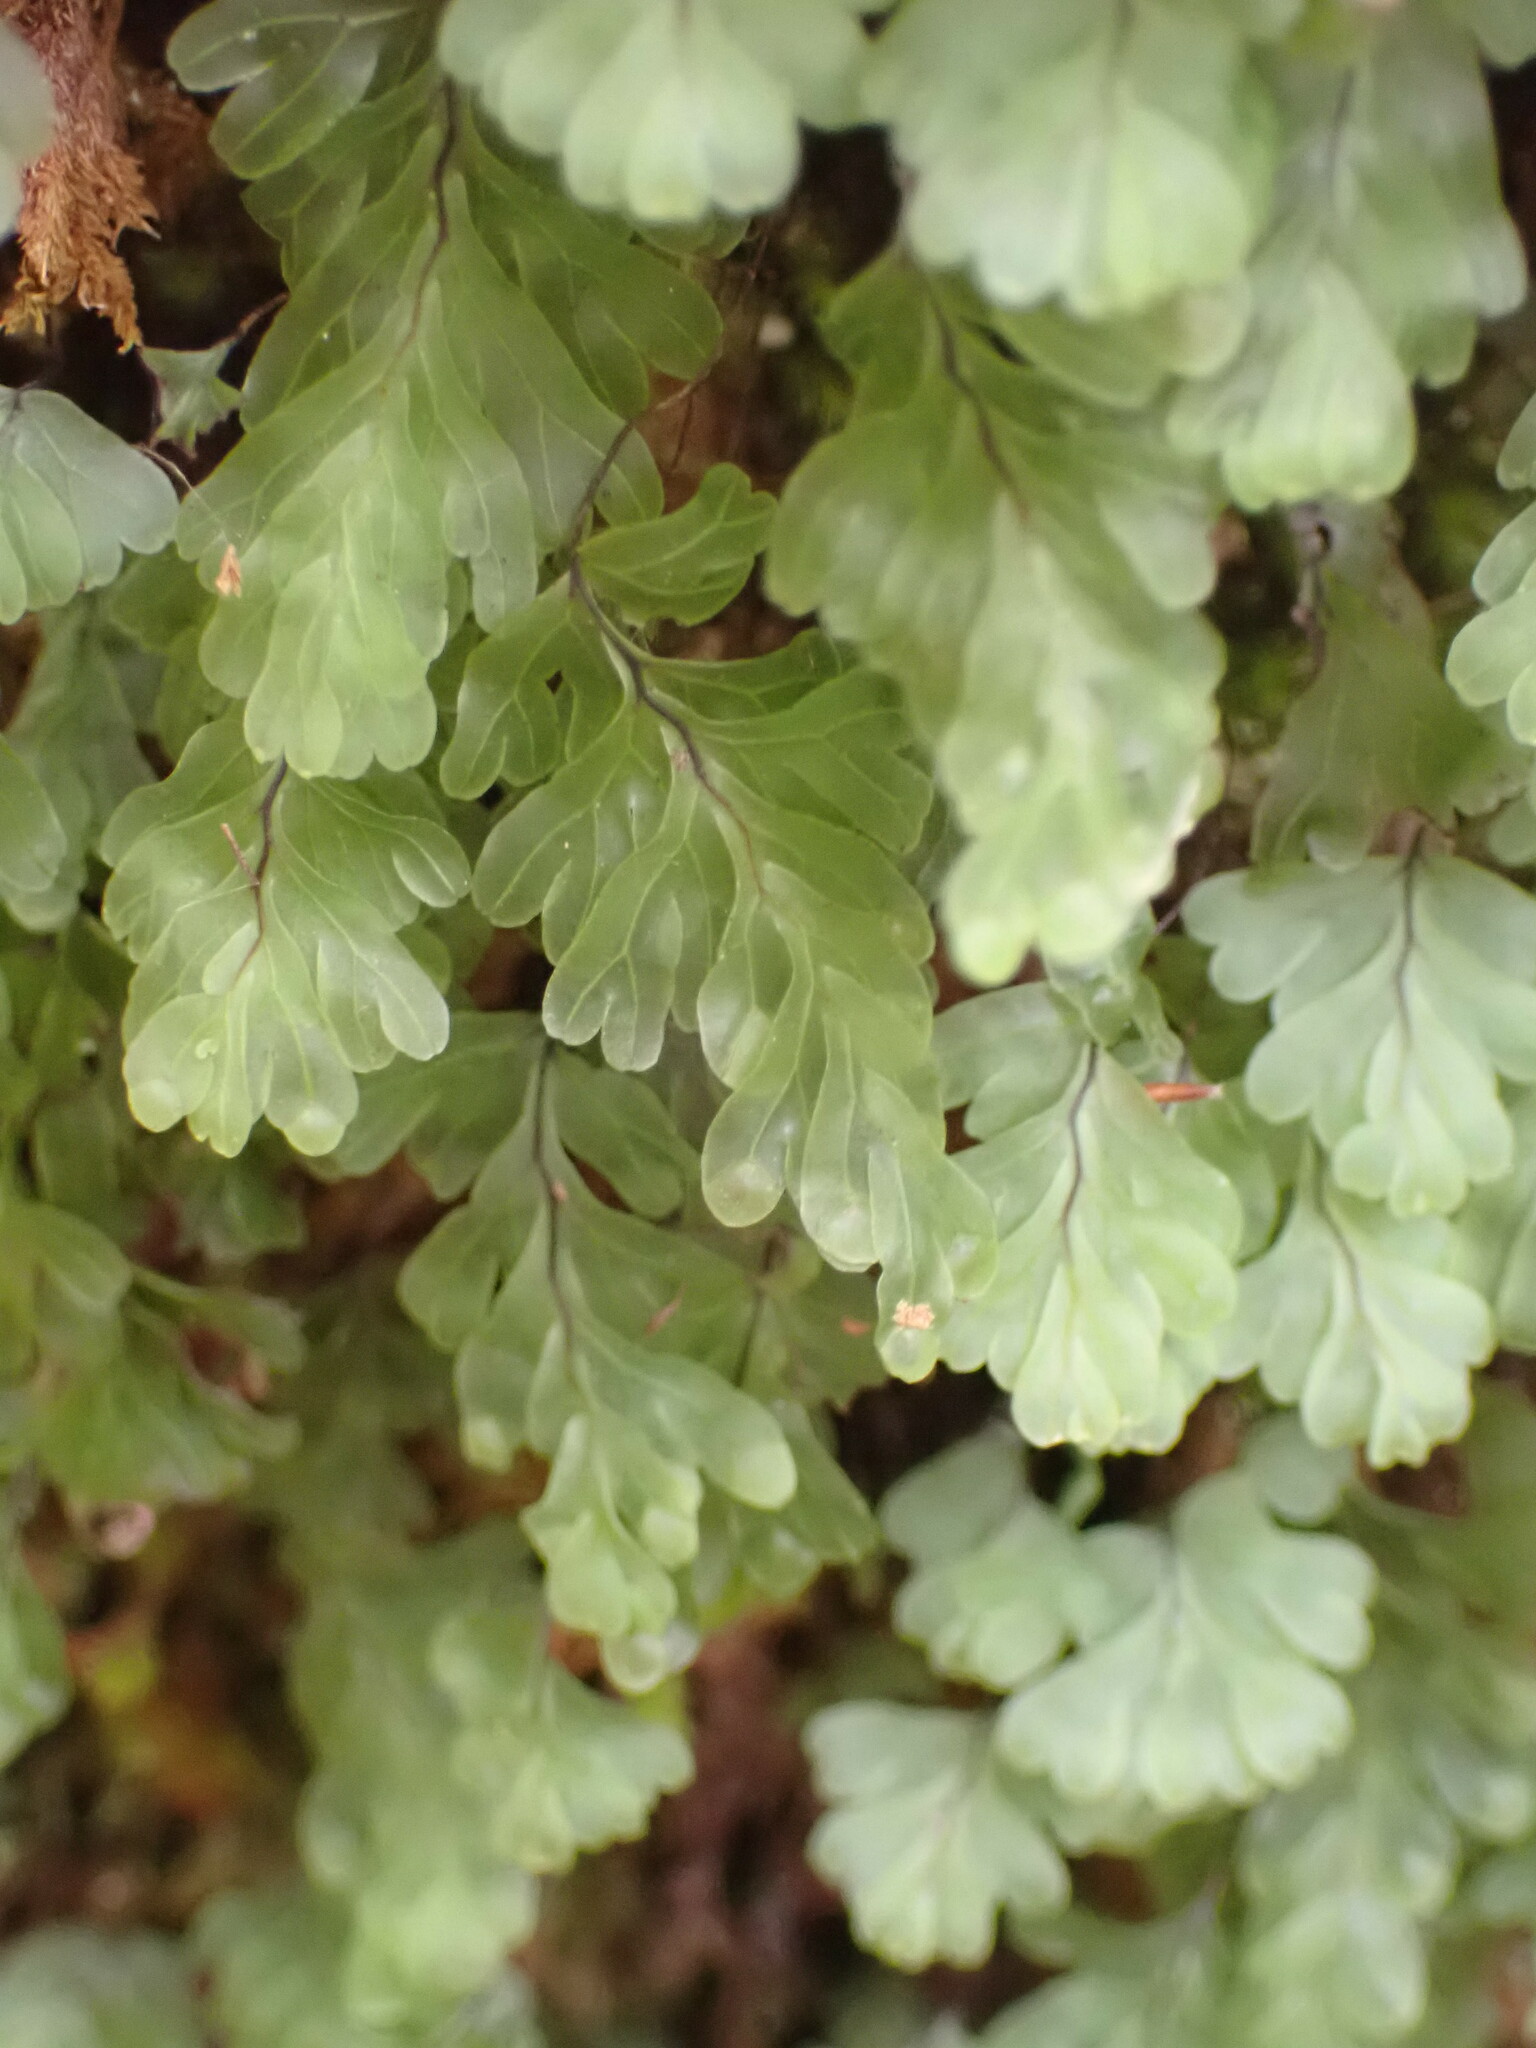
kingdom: Plantae
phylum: Tracheophyta
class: Polypodiopsida
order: Hymenophyllales
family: Hymenophyllaceae
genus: Hymenophyllum
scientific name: Hymenophyllum rarum
